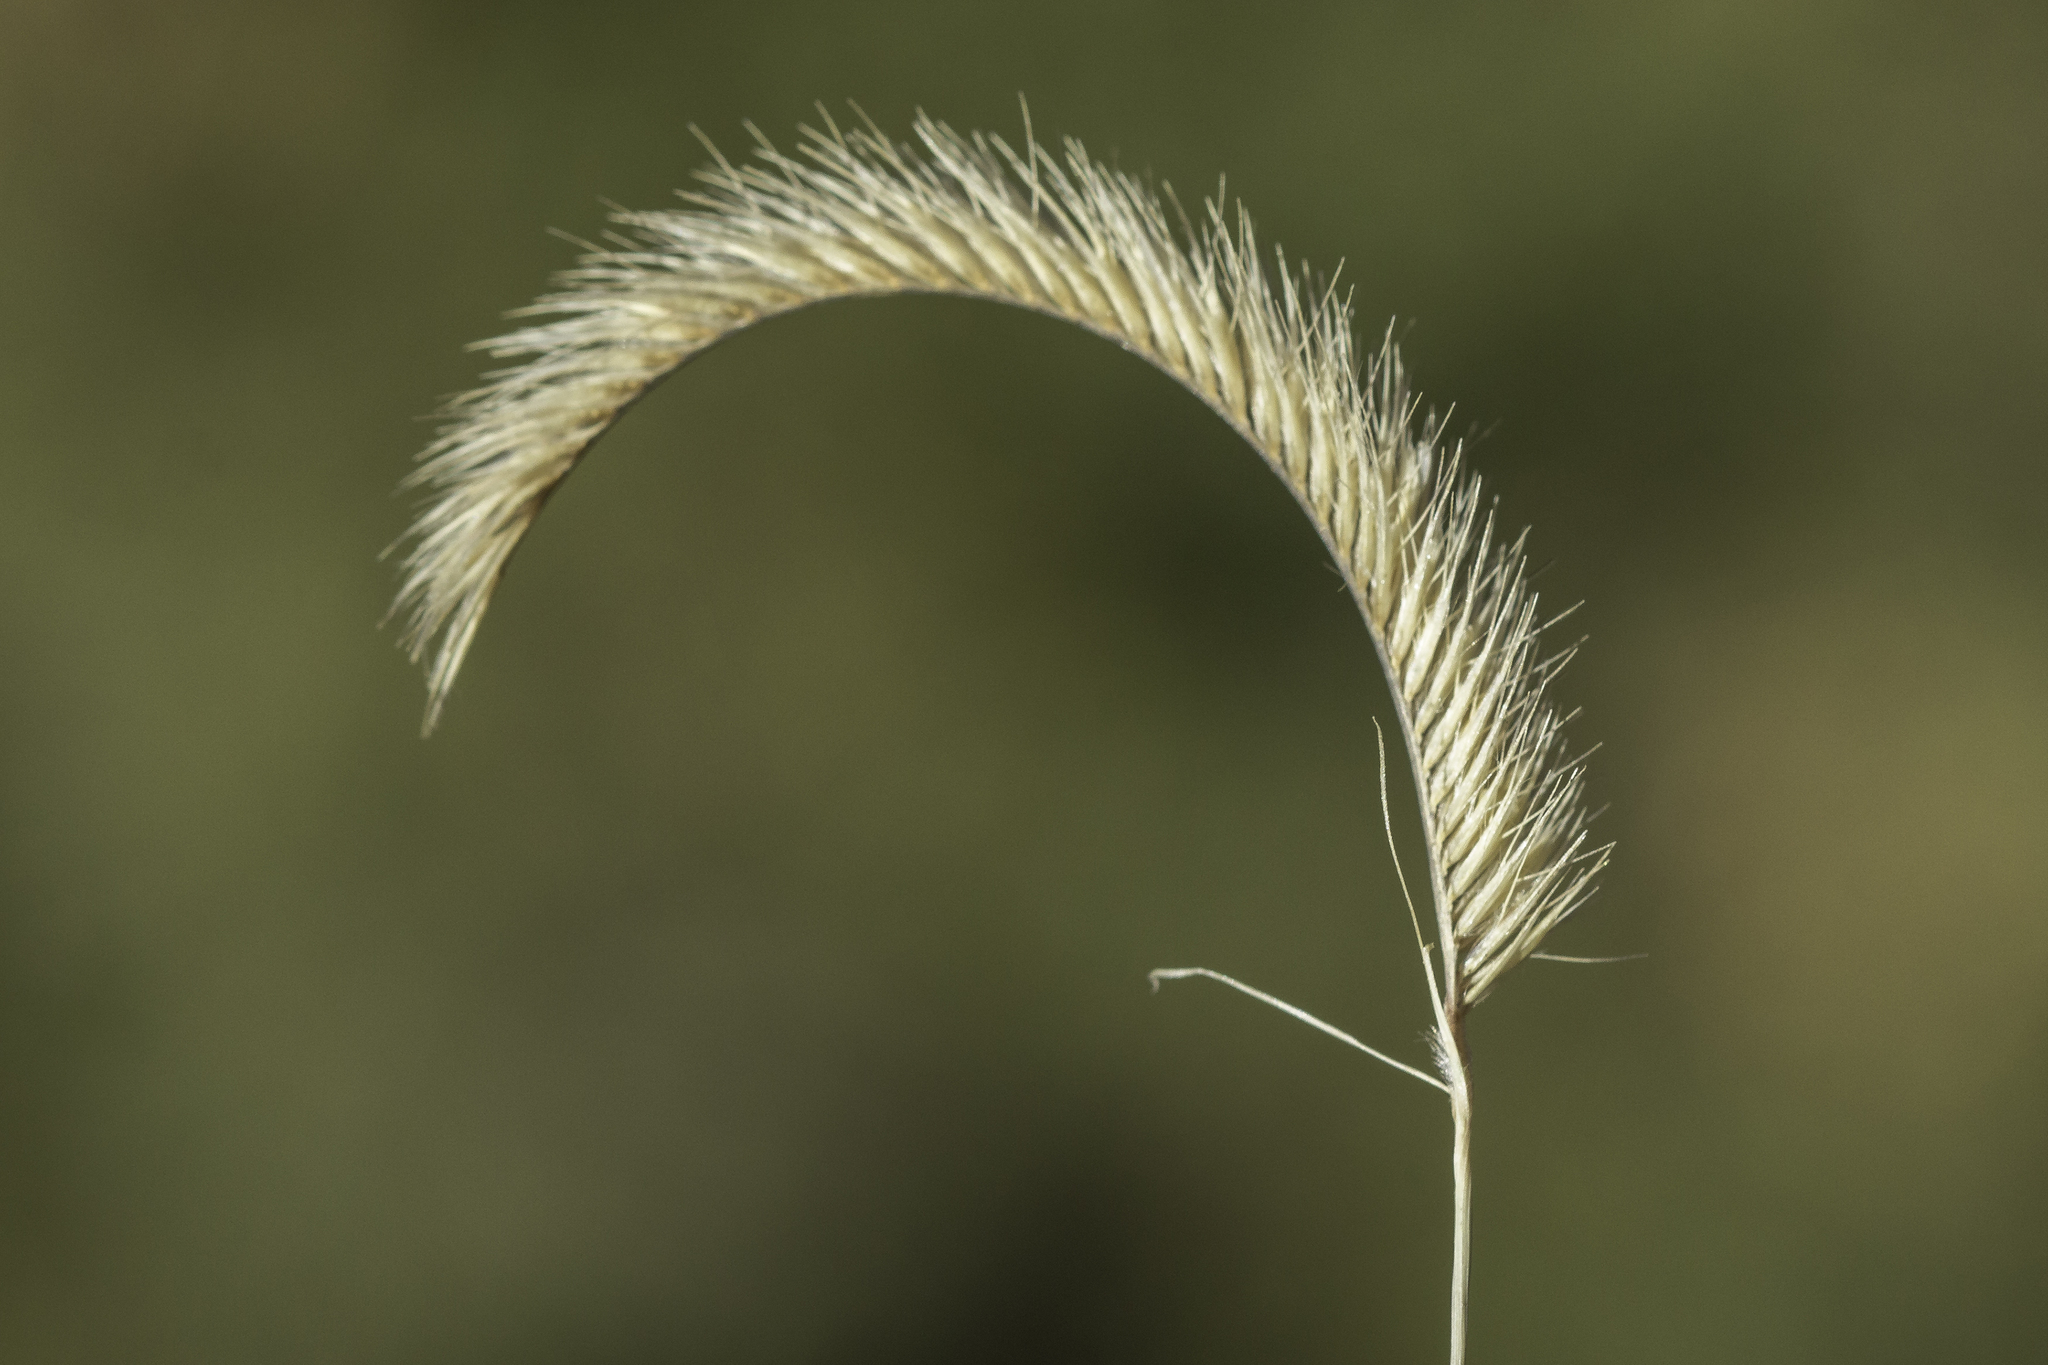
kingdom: Plantae
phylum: Tracheophyta
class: Liliopsida
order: Poales
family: Poaceae
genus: Bouteloua
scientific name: Bouteloua gracilis
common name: Blue grama
